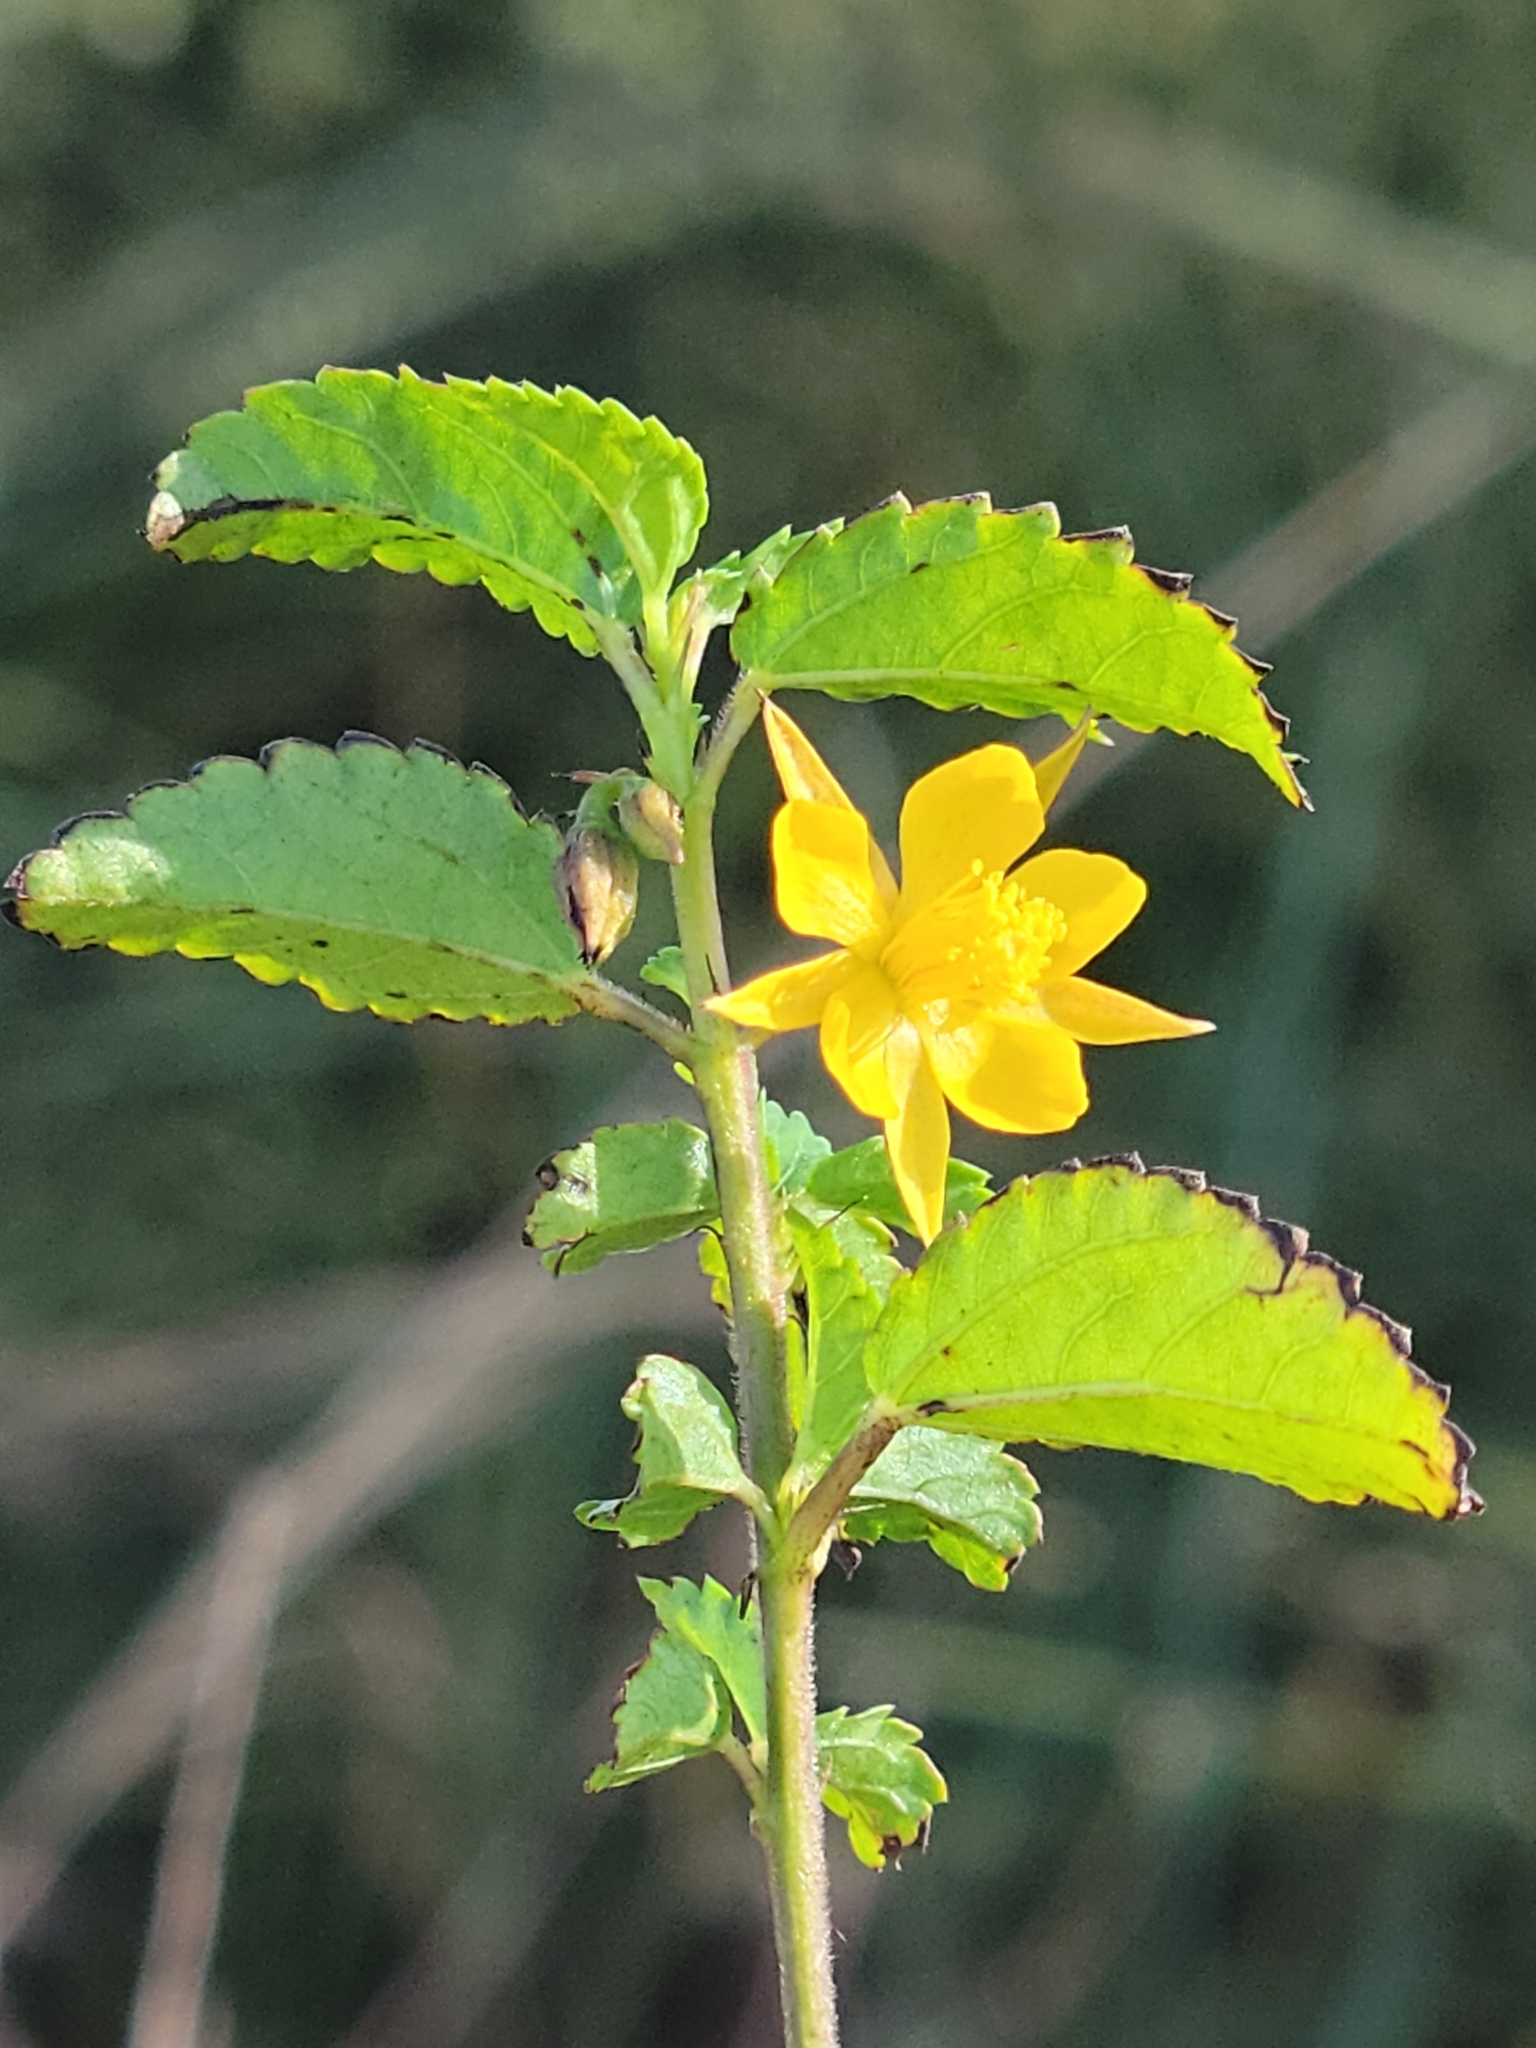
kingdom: Plantae
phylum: Tracheophyta
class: Magnoliopsida
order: Malvales
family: Malvaceae
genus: Corchorus
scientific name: Corchorus siliquosus
